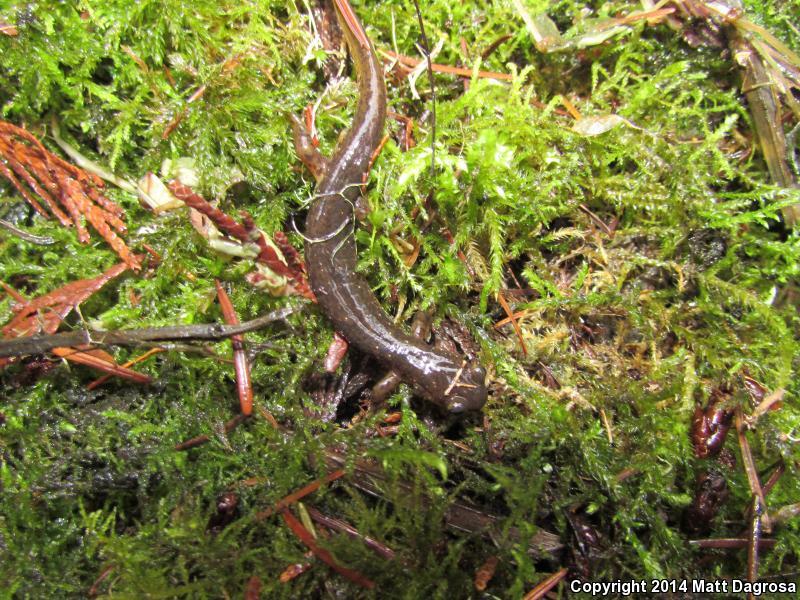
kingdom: Animalia
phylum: Chordata
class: Amphibia
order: Caudata
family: Rhyacotritonidae
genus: Rhyacotriton
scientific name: Rhyacotriton cascadae
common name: Cascade torrent salamander
